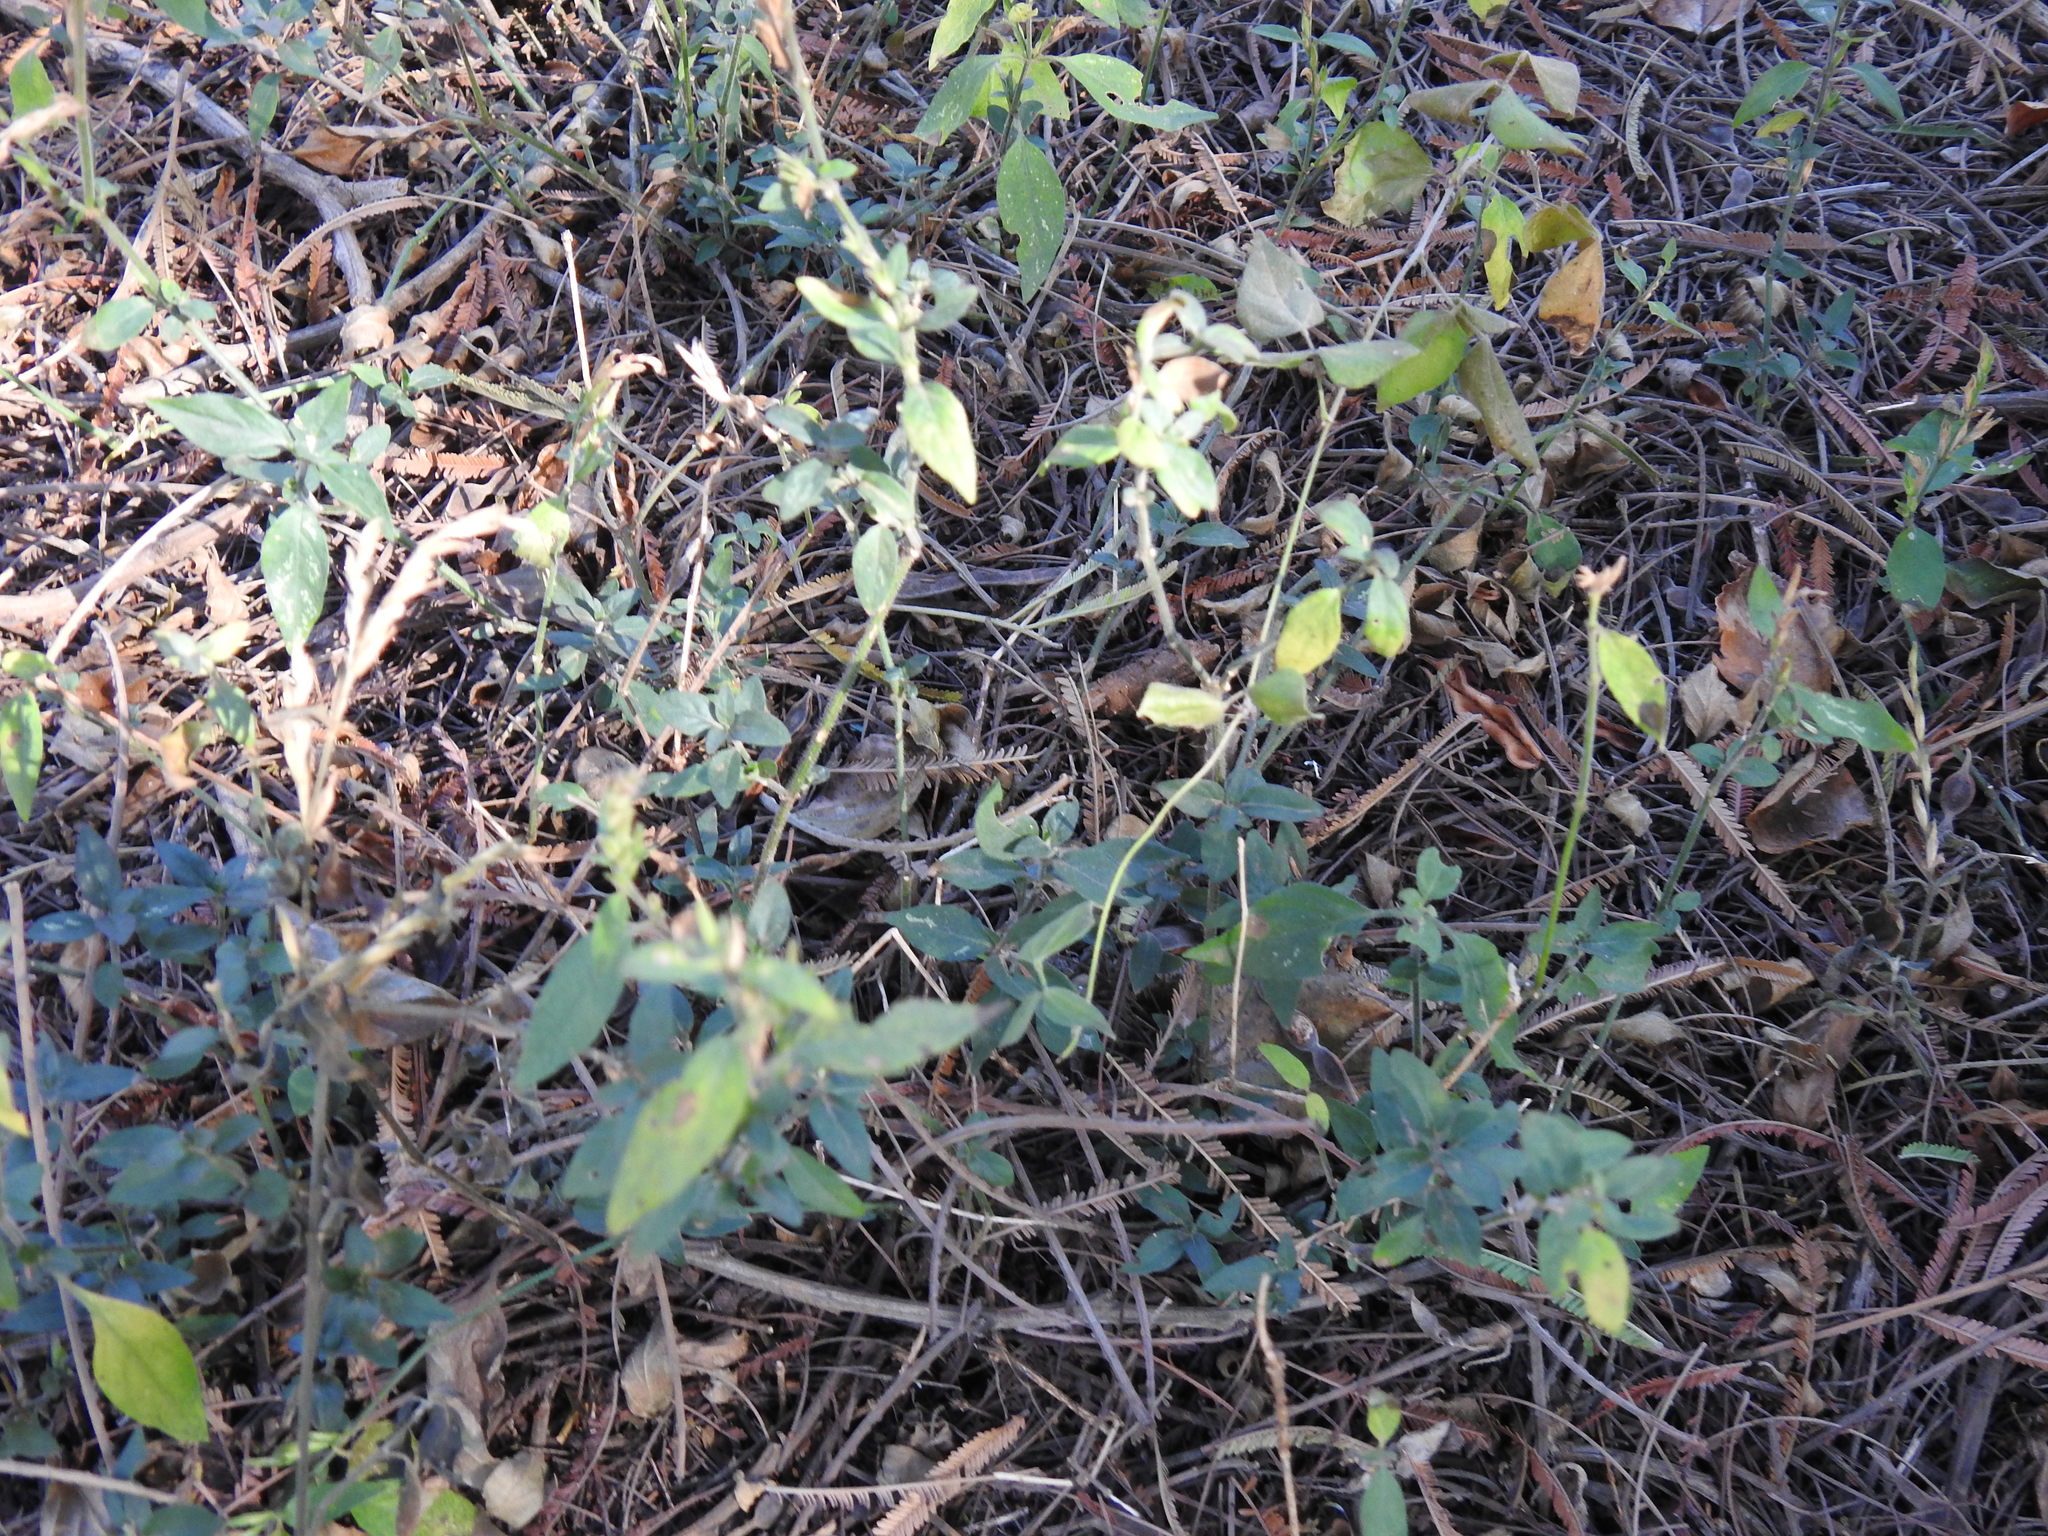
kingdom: Plantae
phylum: Tracheophyta
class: Magnoliopsida
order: Lamiales
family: Acanthaceae
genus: Hypoestes
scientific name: Hypoestes forskaolii
